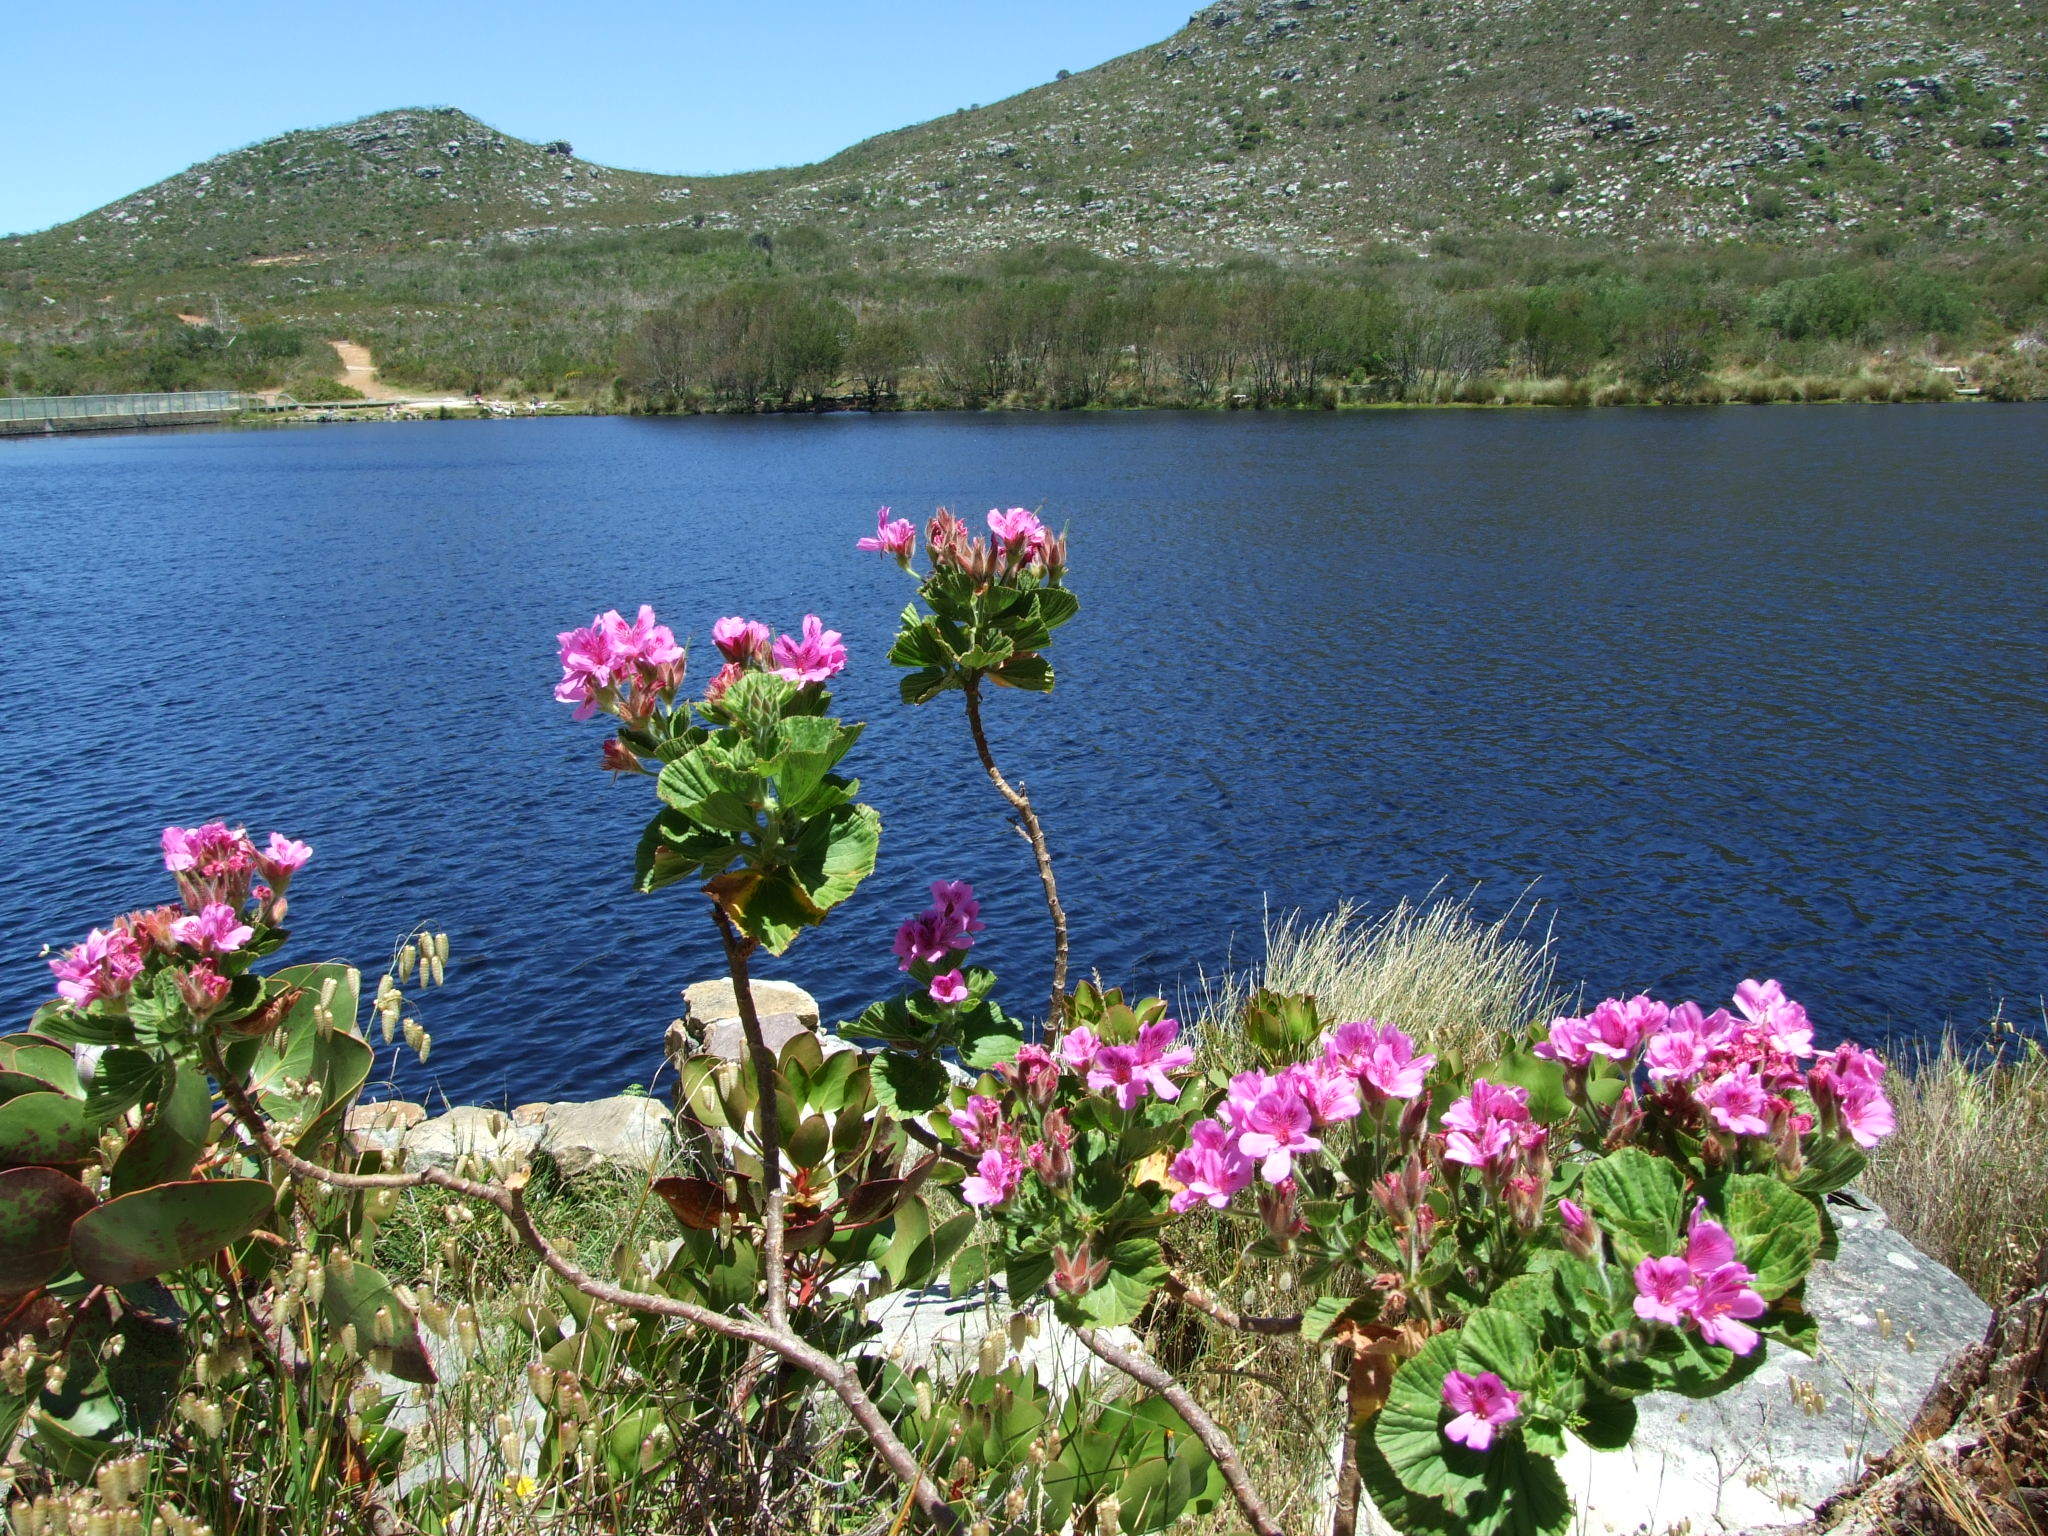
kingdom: Plantae
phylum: Tracheophyta
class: Magnoliopsida
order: Geraniales
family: Geraniaceae
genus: Pelargonium
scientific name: Pelargonium cucullatum
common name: Tree pelargonium
